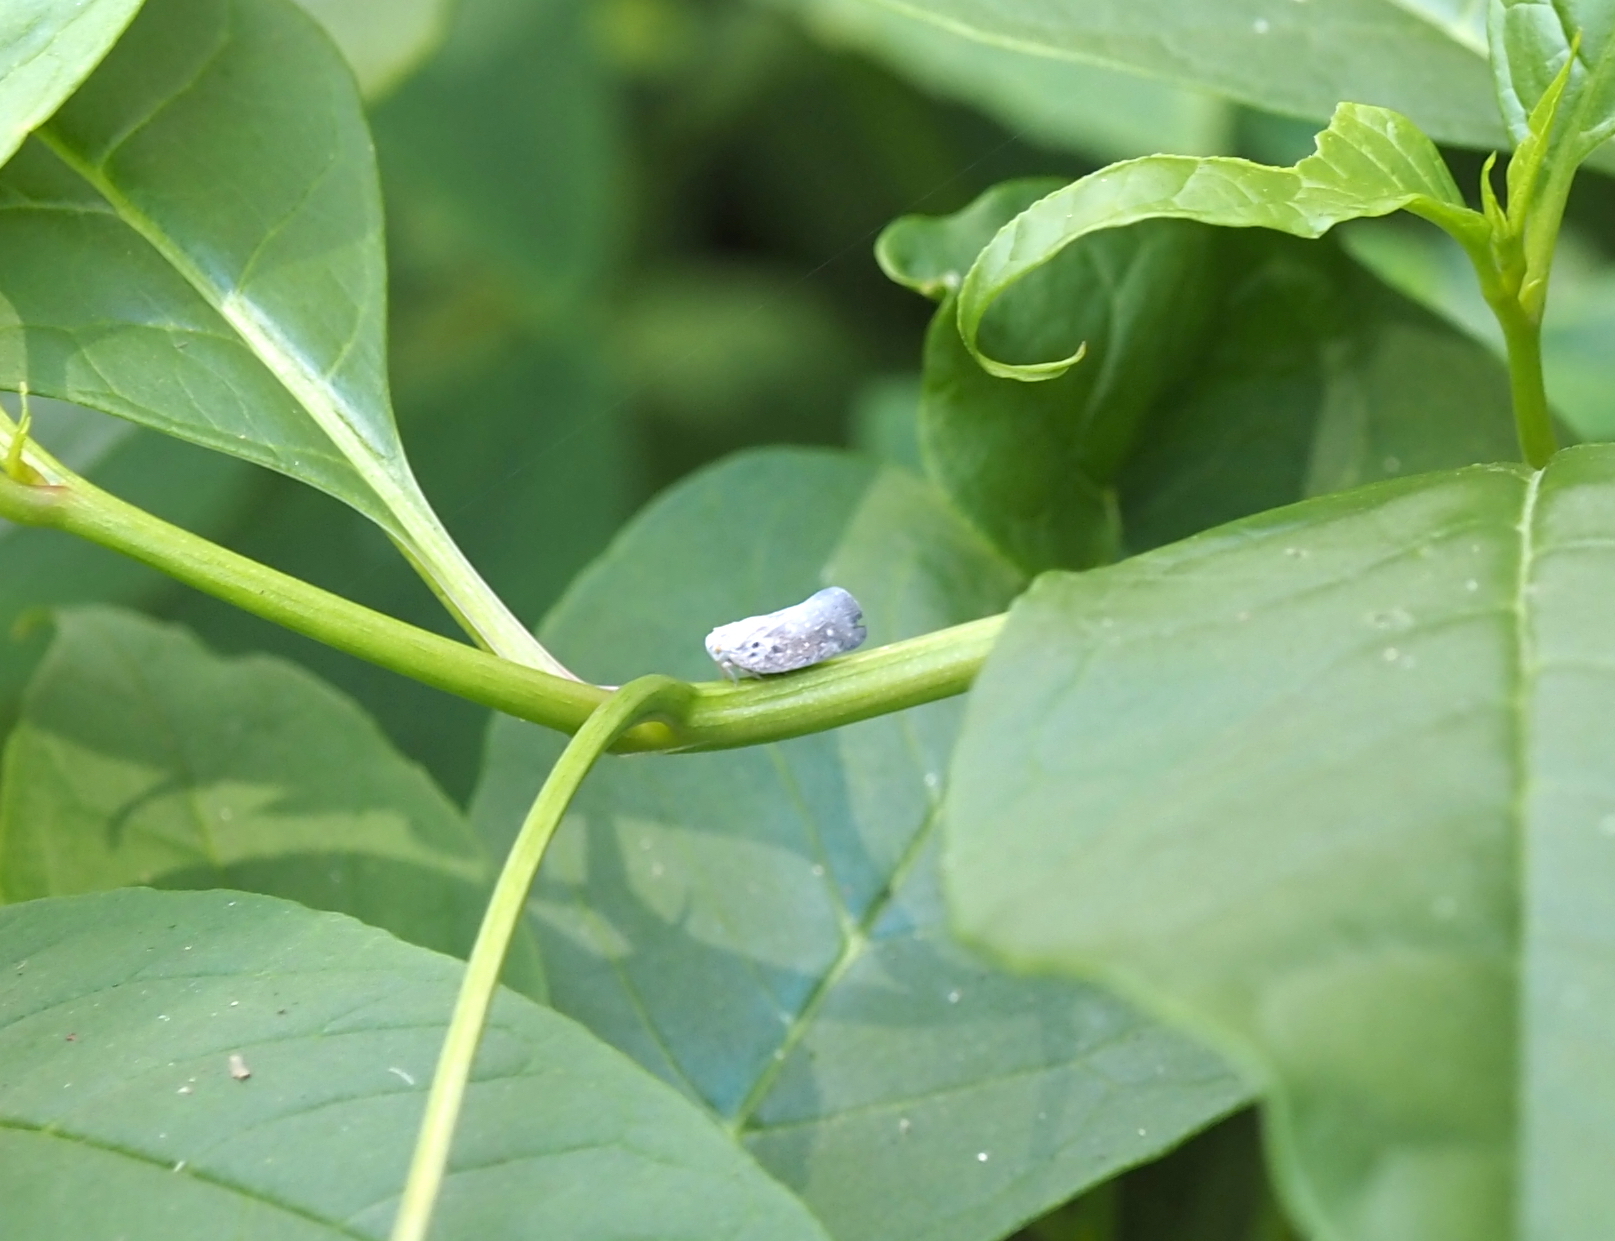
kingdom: Animalia
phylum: Arthropoda
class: Insecta
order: Hemiptera
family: Flatidae
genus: Metcalfa
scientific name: Metcalfa pruinosa
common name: Citrus flatid planthopper
